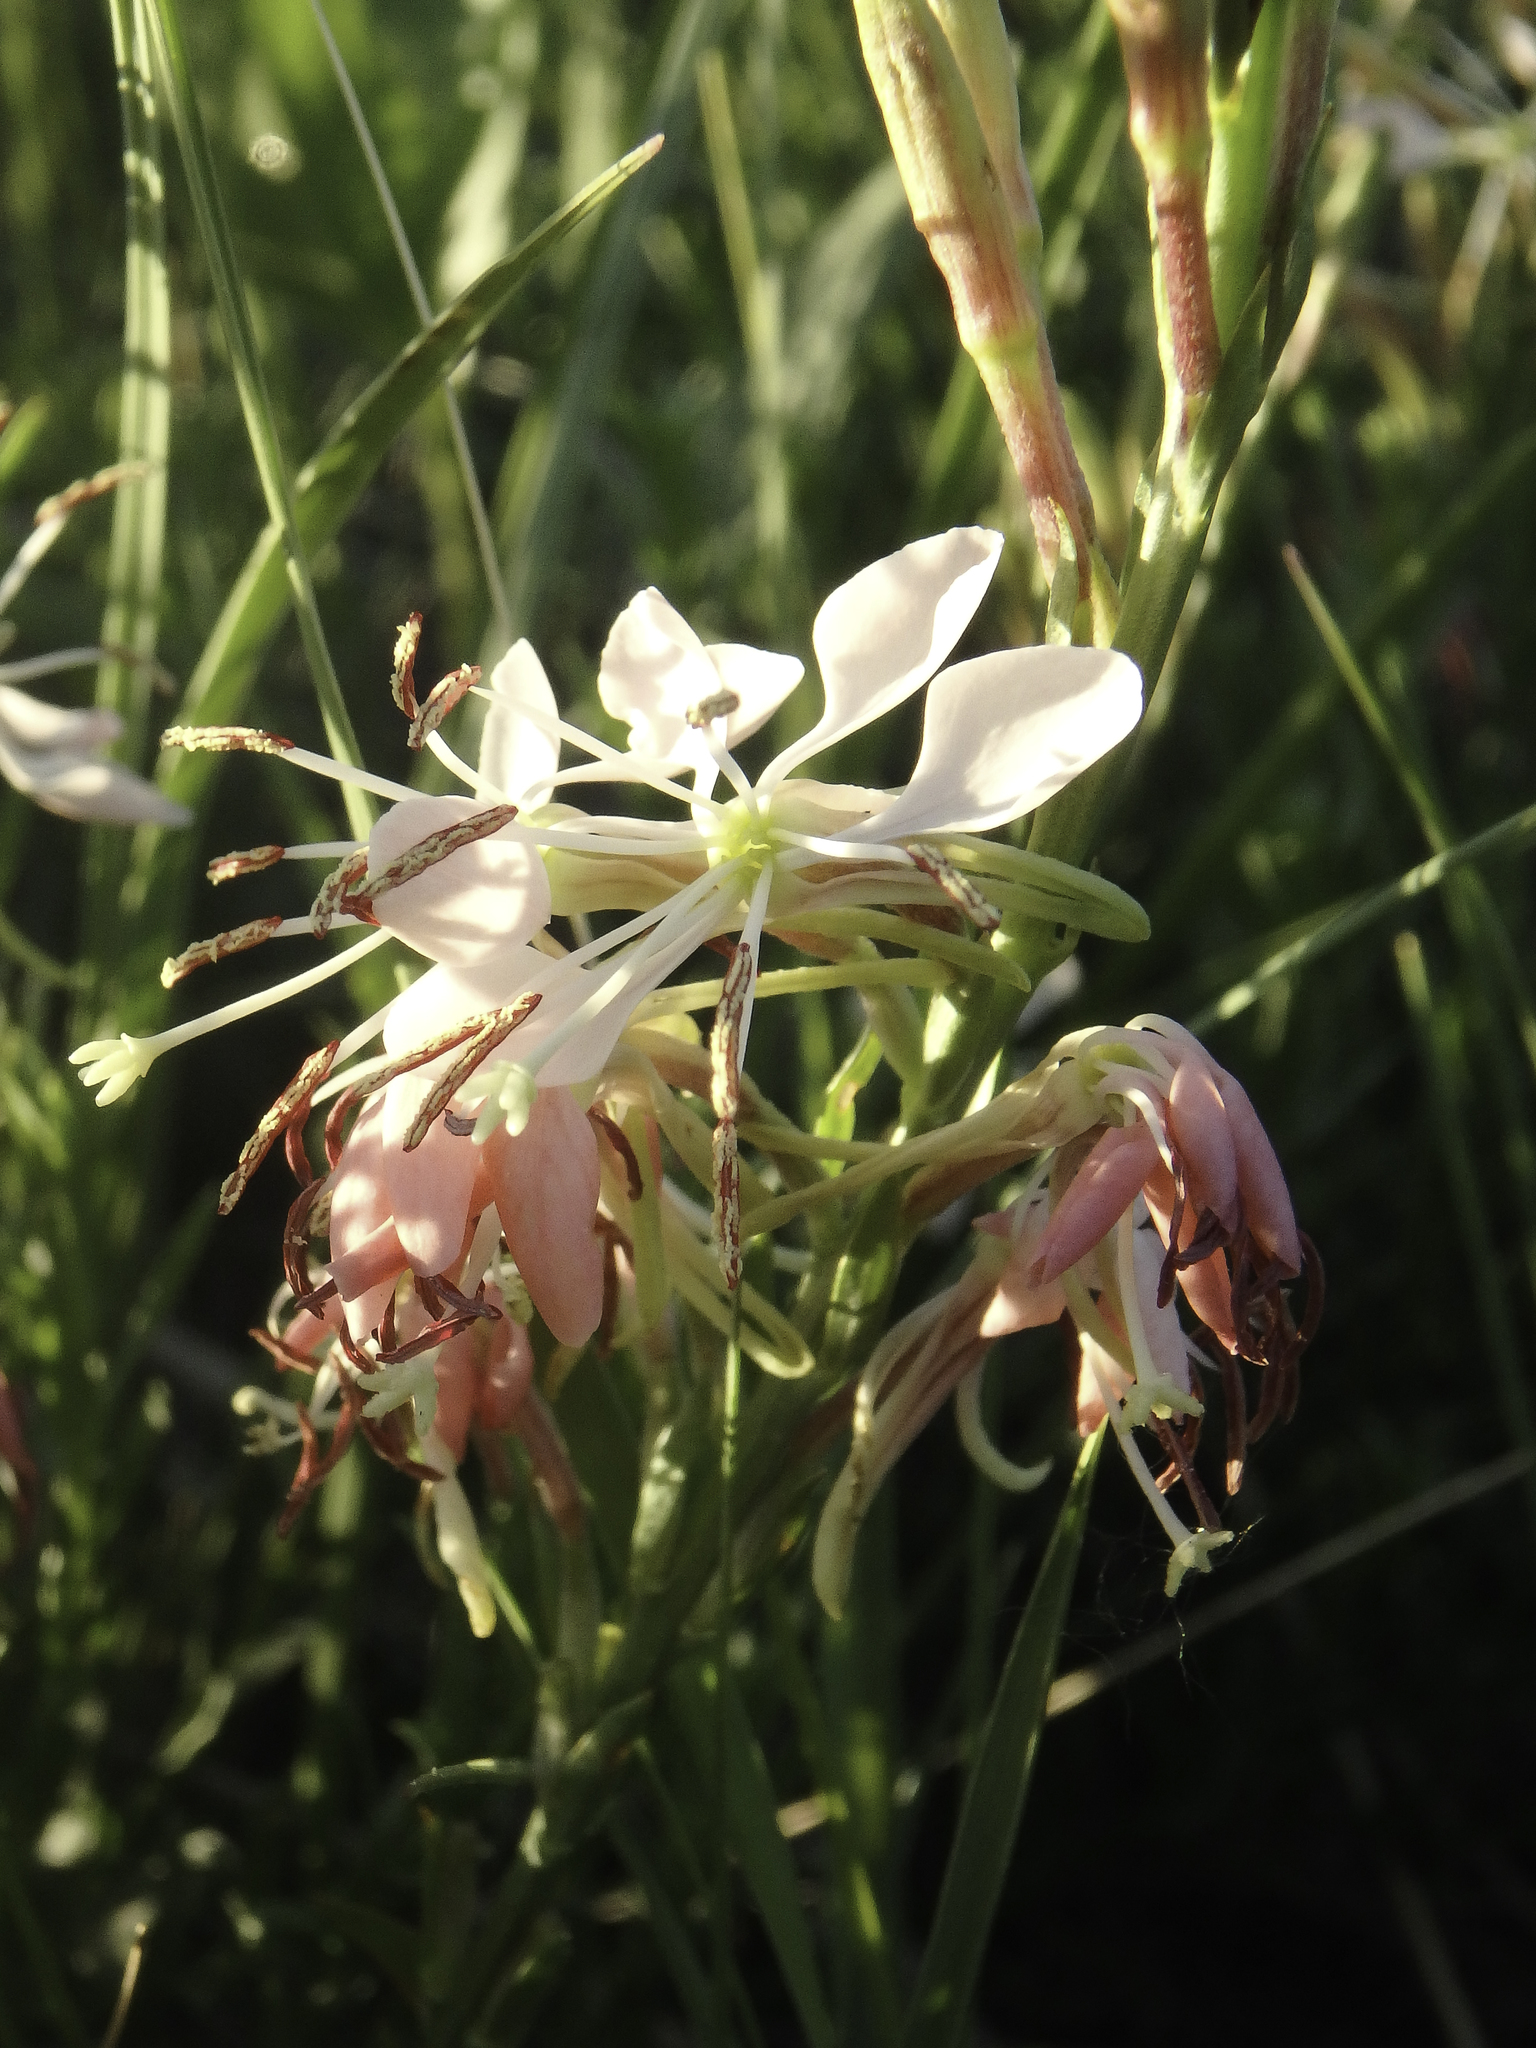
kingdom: Plantae
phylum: Tracheophyta
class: Magnoliopsida
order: Myrtales
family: Onagraceae
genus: Oenothera
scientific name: Oenothera suffrutescens
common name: Scarlet beeblossom
